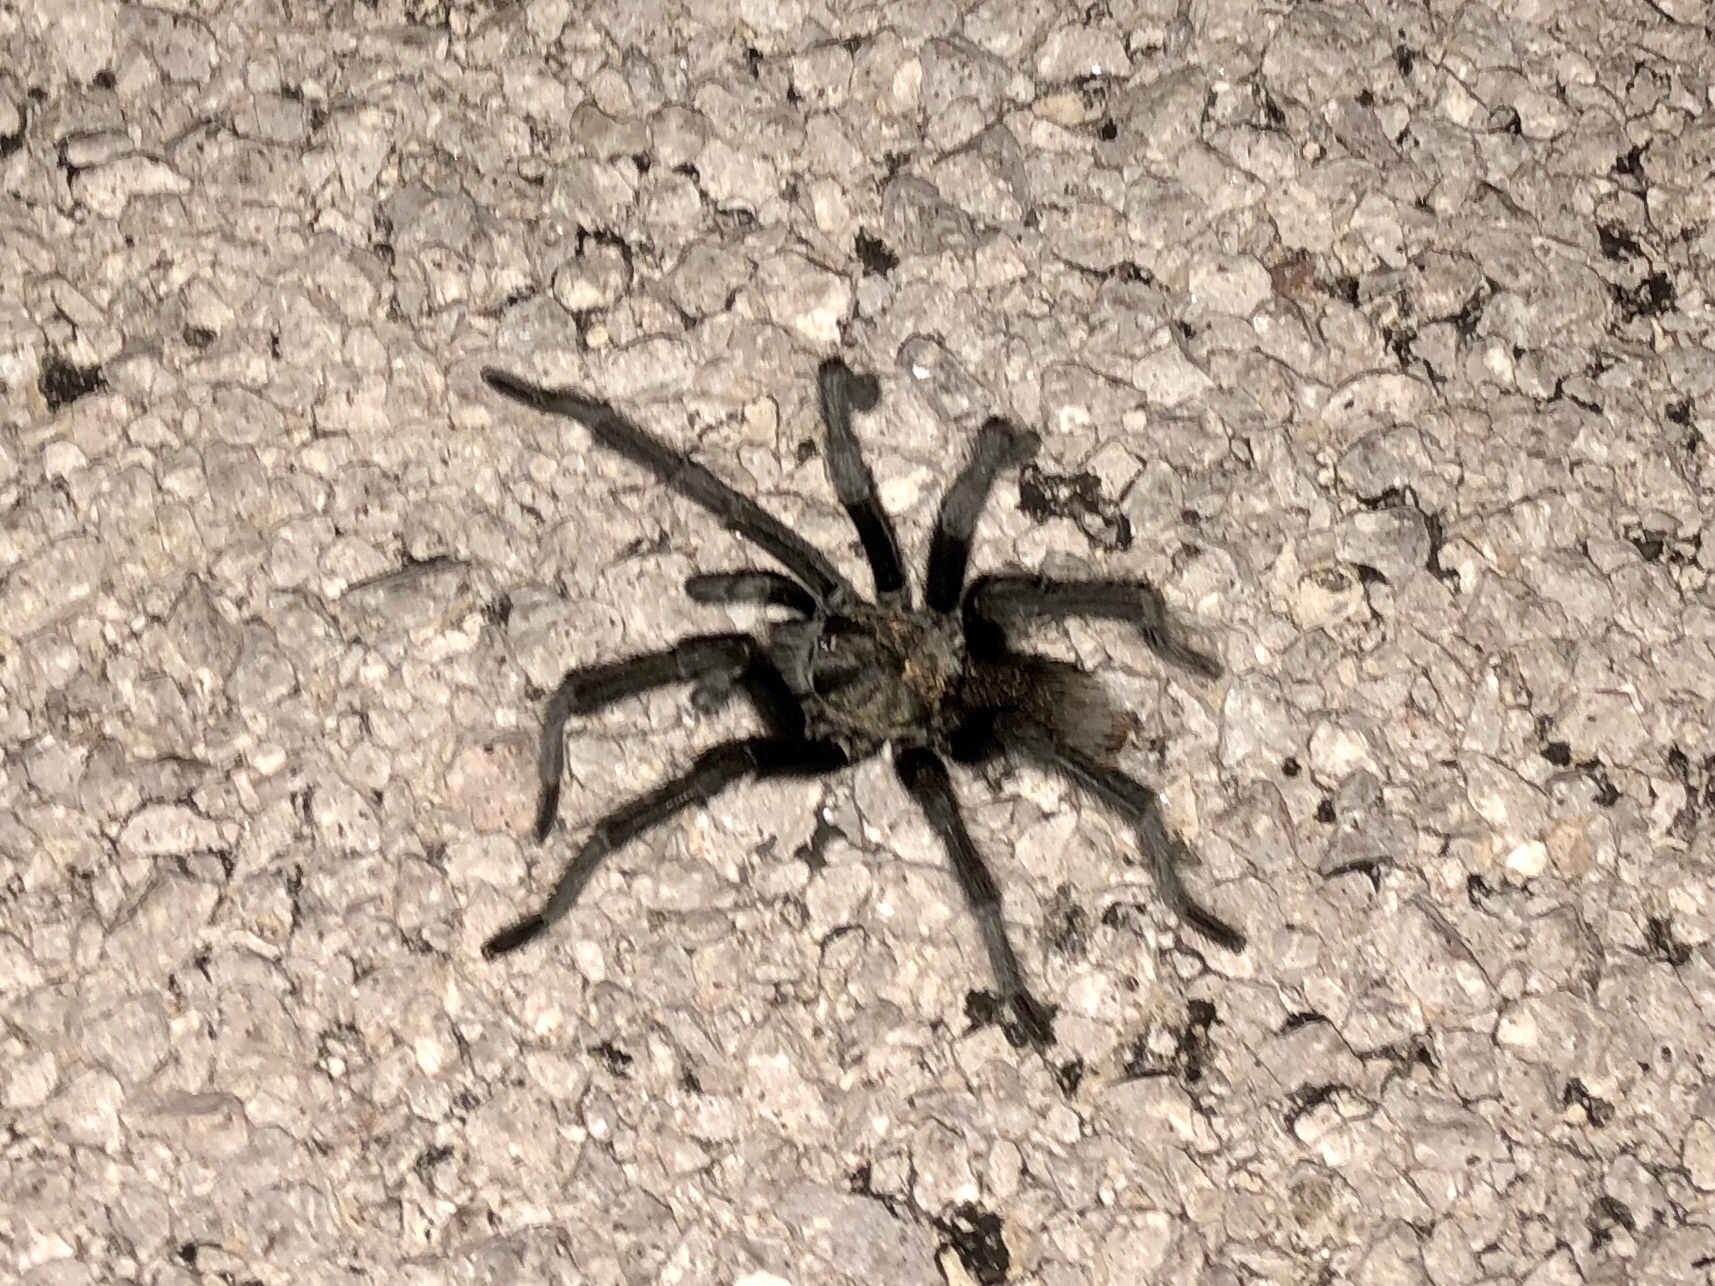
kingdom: Animalia
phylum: Arthropoda
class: Arachnida
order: Araneae
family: Theraphosidae
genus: Aphonopelma
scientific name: Aphonopelma gabeli
